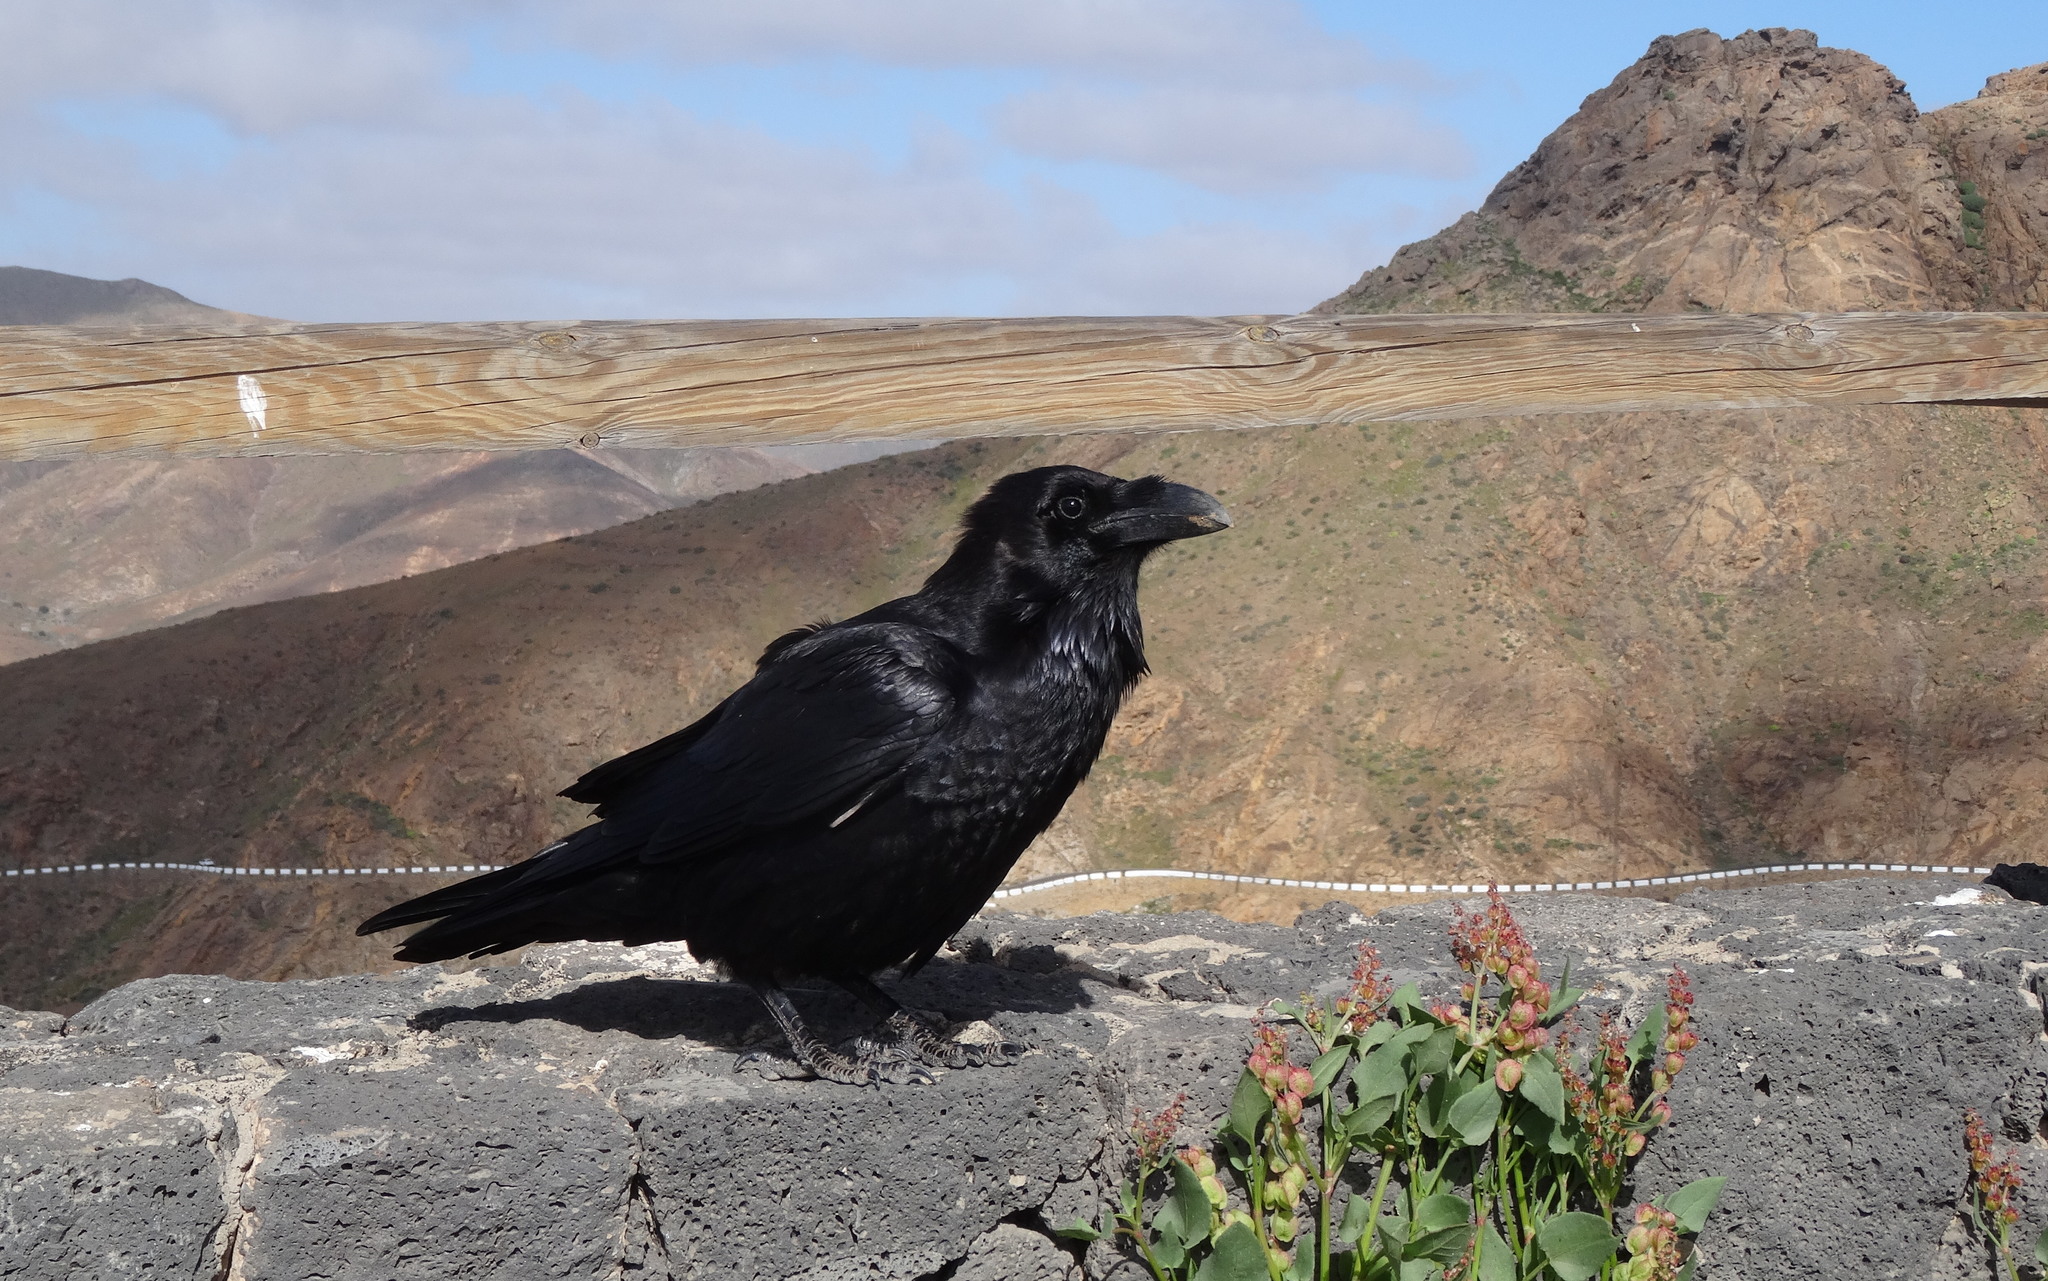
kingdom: Animalia
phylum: Chordata
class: Aves
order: Passeriformes
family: Corvidae
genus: Corvus
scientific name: Corvus corax
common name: Common raven
